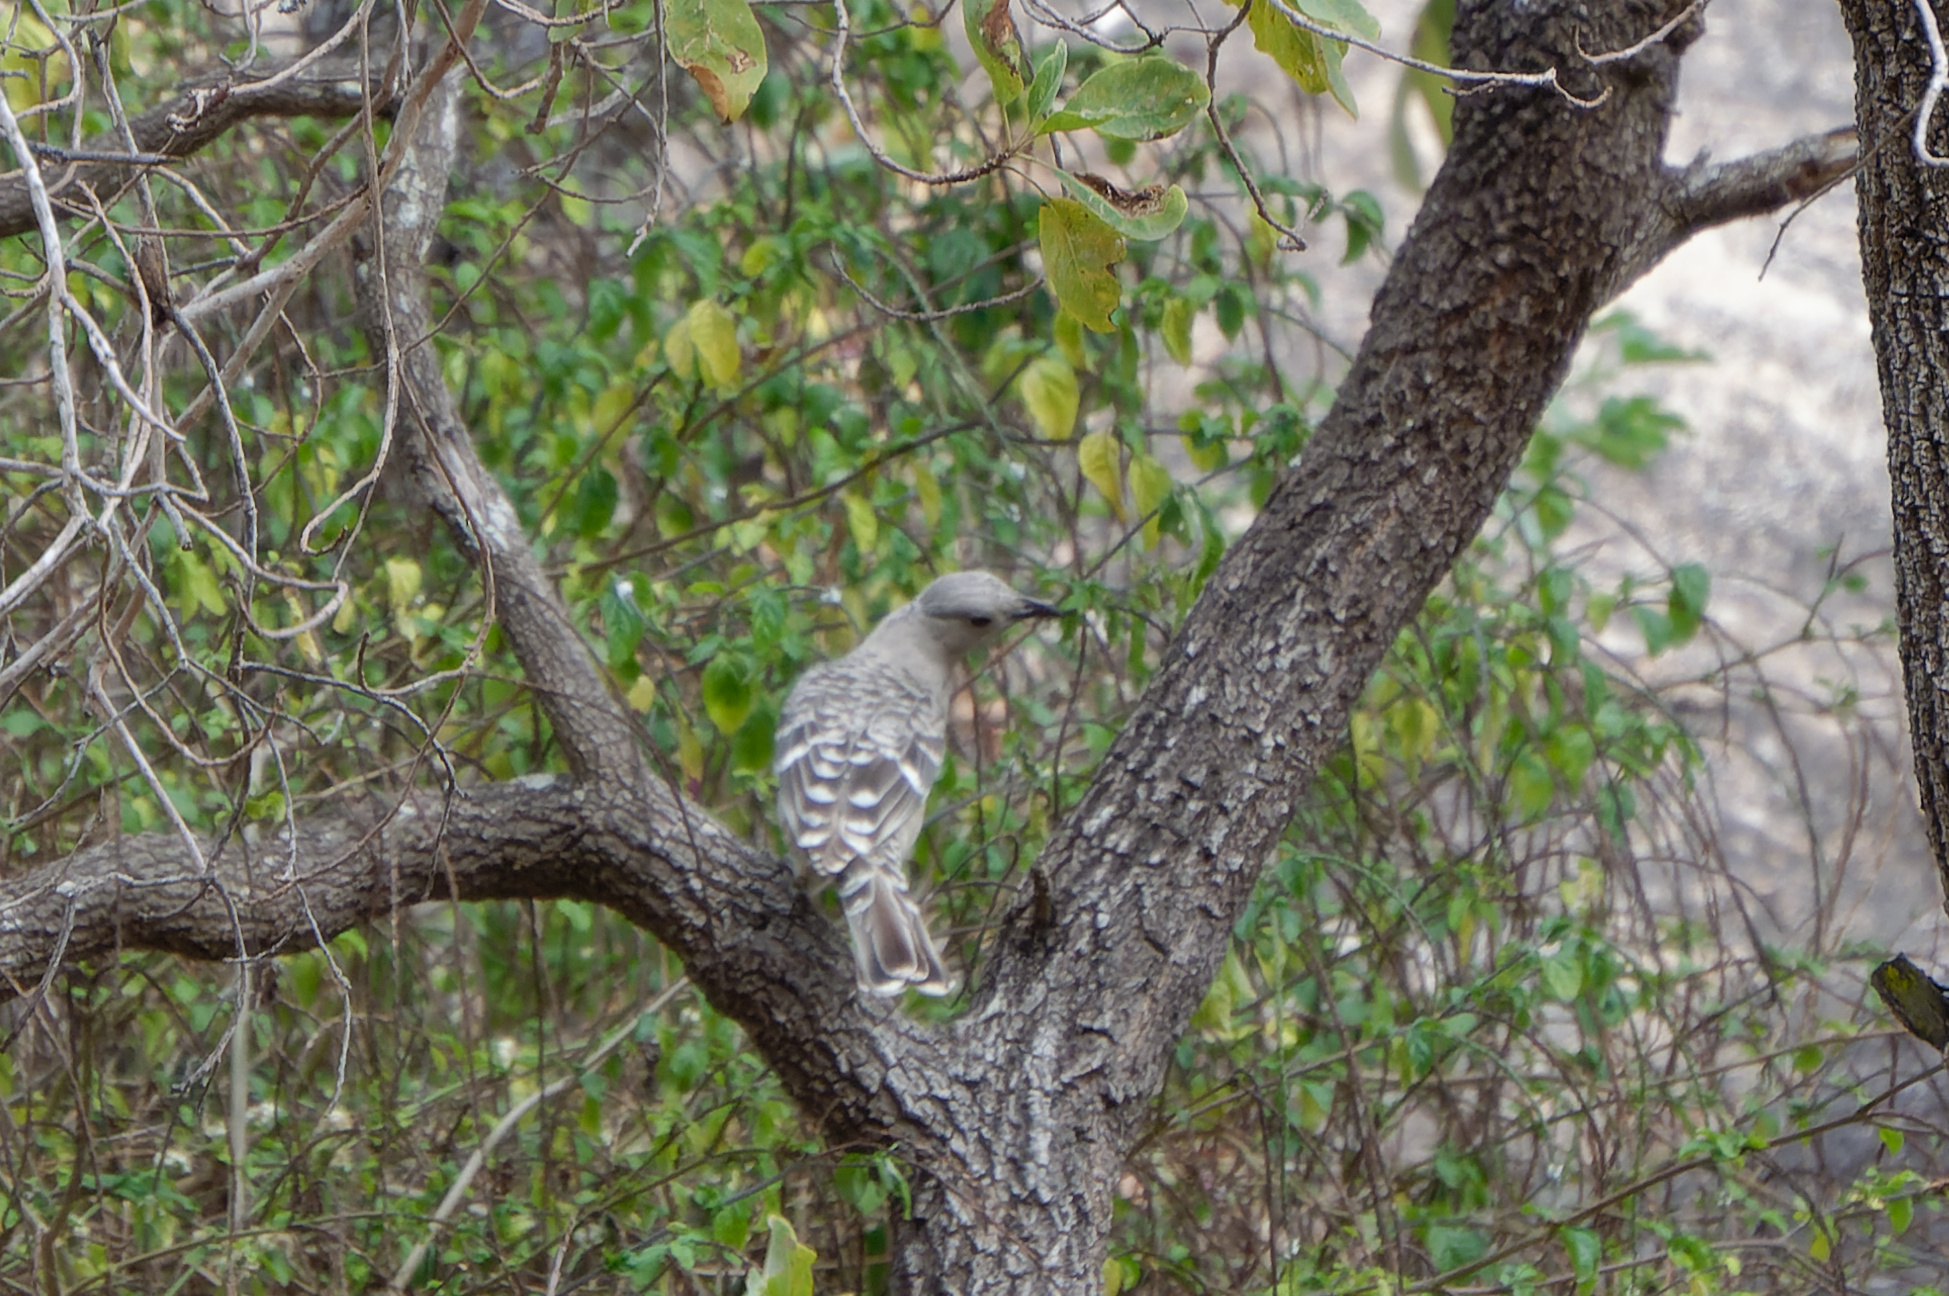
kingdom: Animalia
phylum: Chordata
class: Aves
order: Passeriformes
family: Ptilonorhynchidae
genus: Chlamydera
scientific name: Chlamydera nuchalis
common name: Great bowerbird
